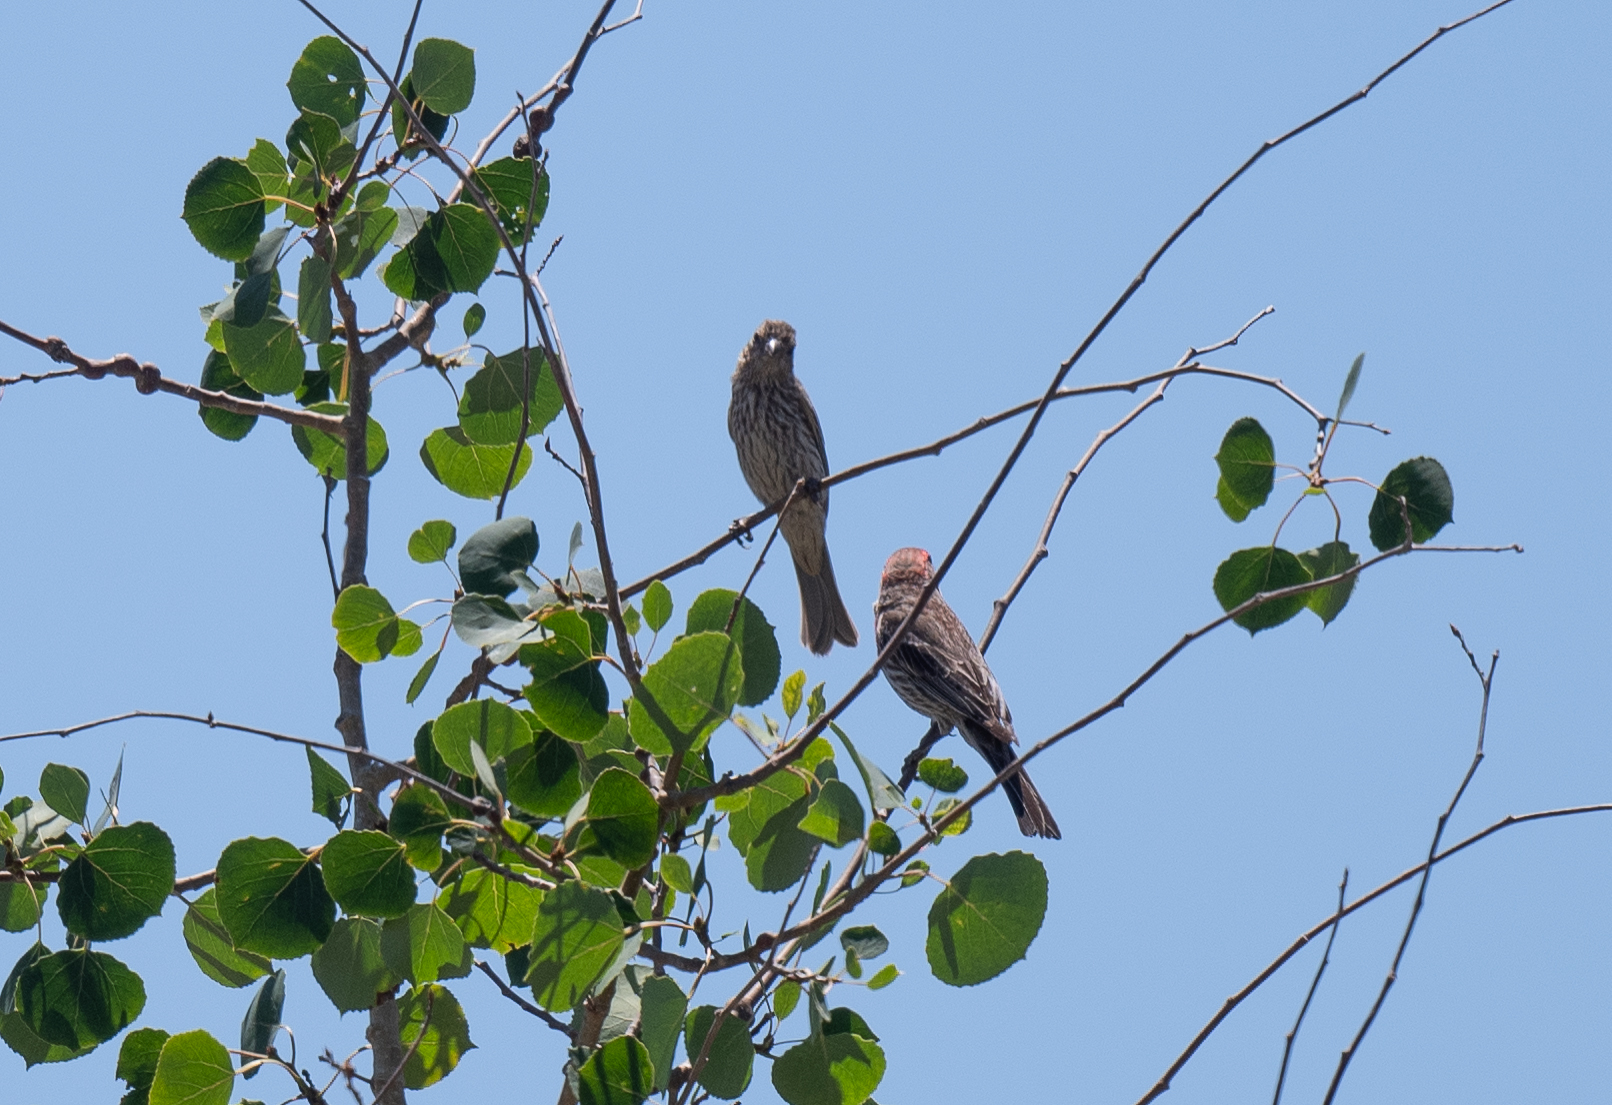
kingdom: Animalia
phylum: Chordata
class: Aves
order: Passeriformes
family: Fringillidae
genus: Haemorhous
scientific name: Haemorhous mexicanus
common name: House finch
